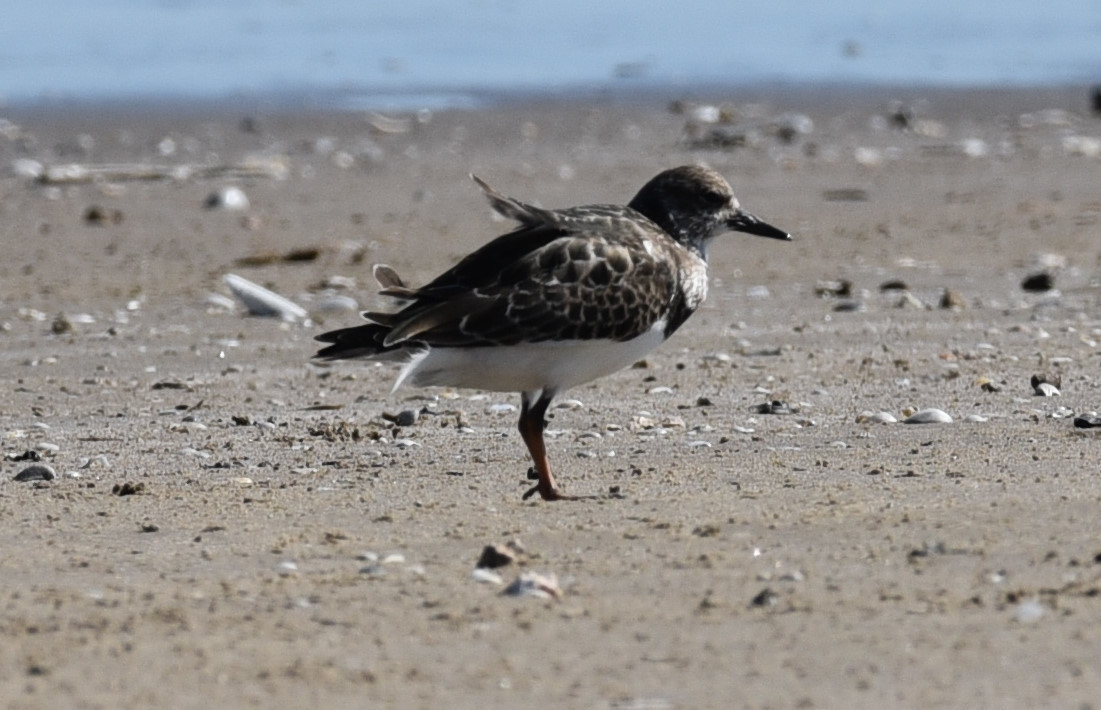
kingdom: Animalia
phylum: Chordata
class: Aves
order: Charadriiformes
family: Scolopacidae
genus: Arenaria
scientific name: Arenaria interpres
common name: Ruddy turnstone
